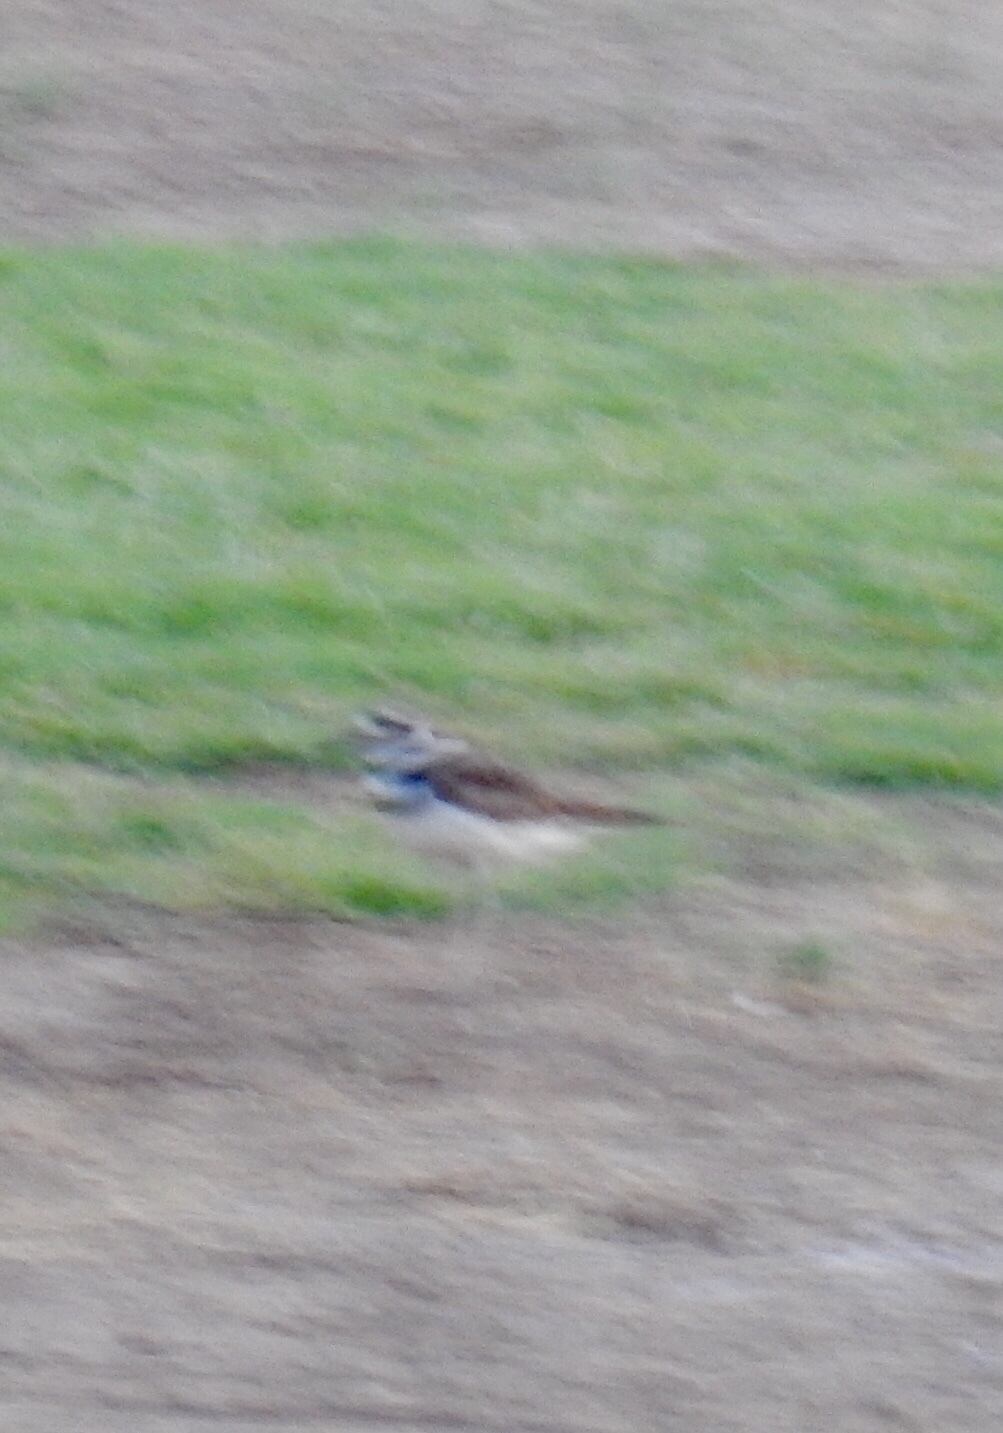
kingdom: Animalia
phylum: Chordata
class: Aves
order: Charadriiformes
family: Charadriidae
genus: Charadrius
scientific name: Charadrius vociferus
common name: Killdeer
